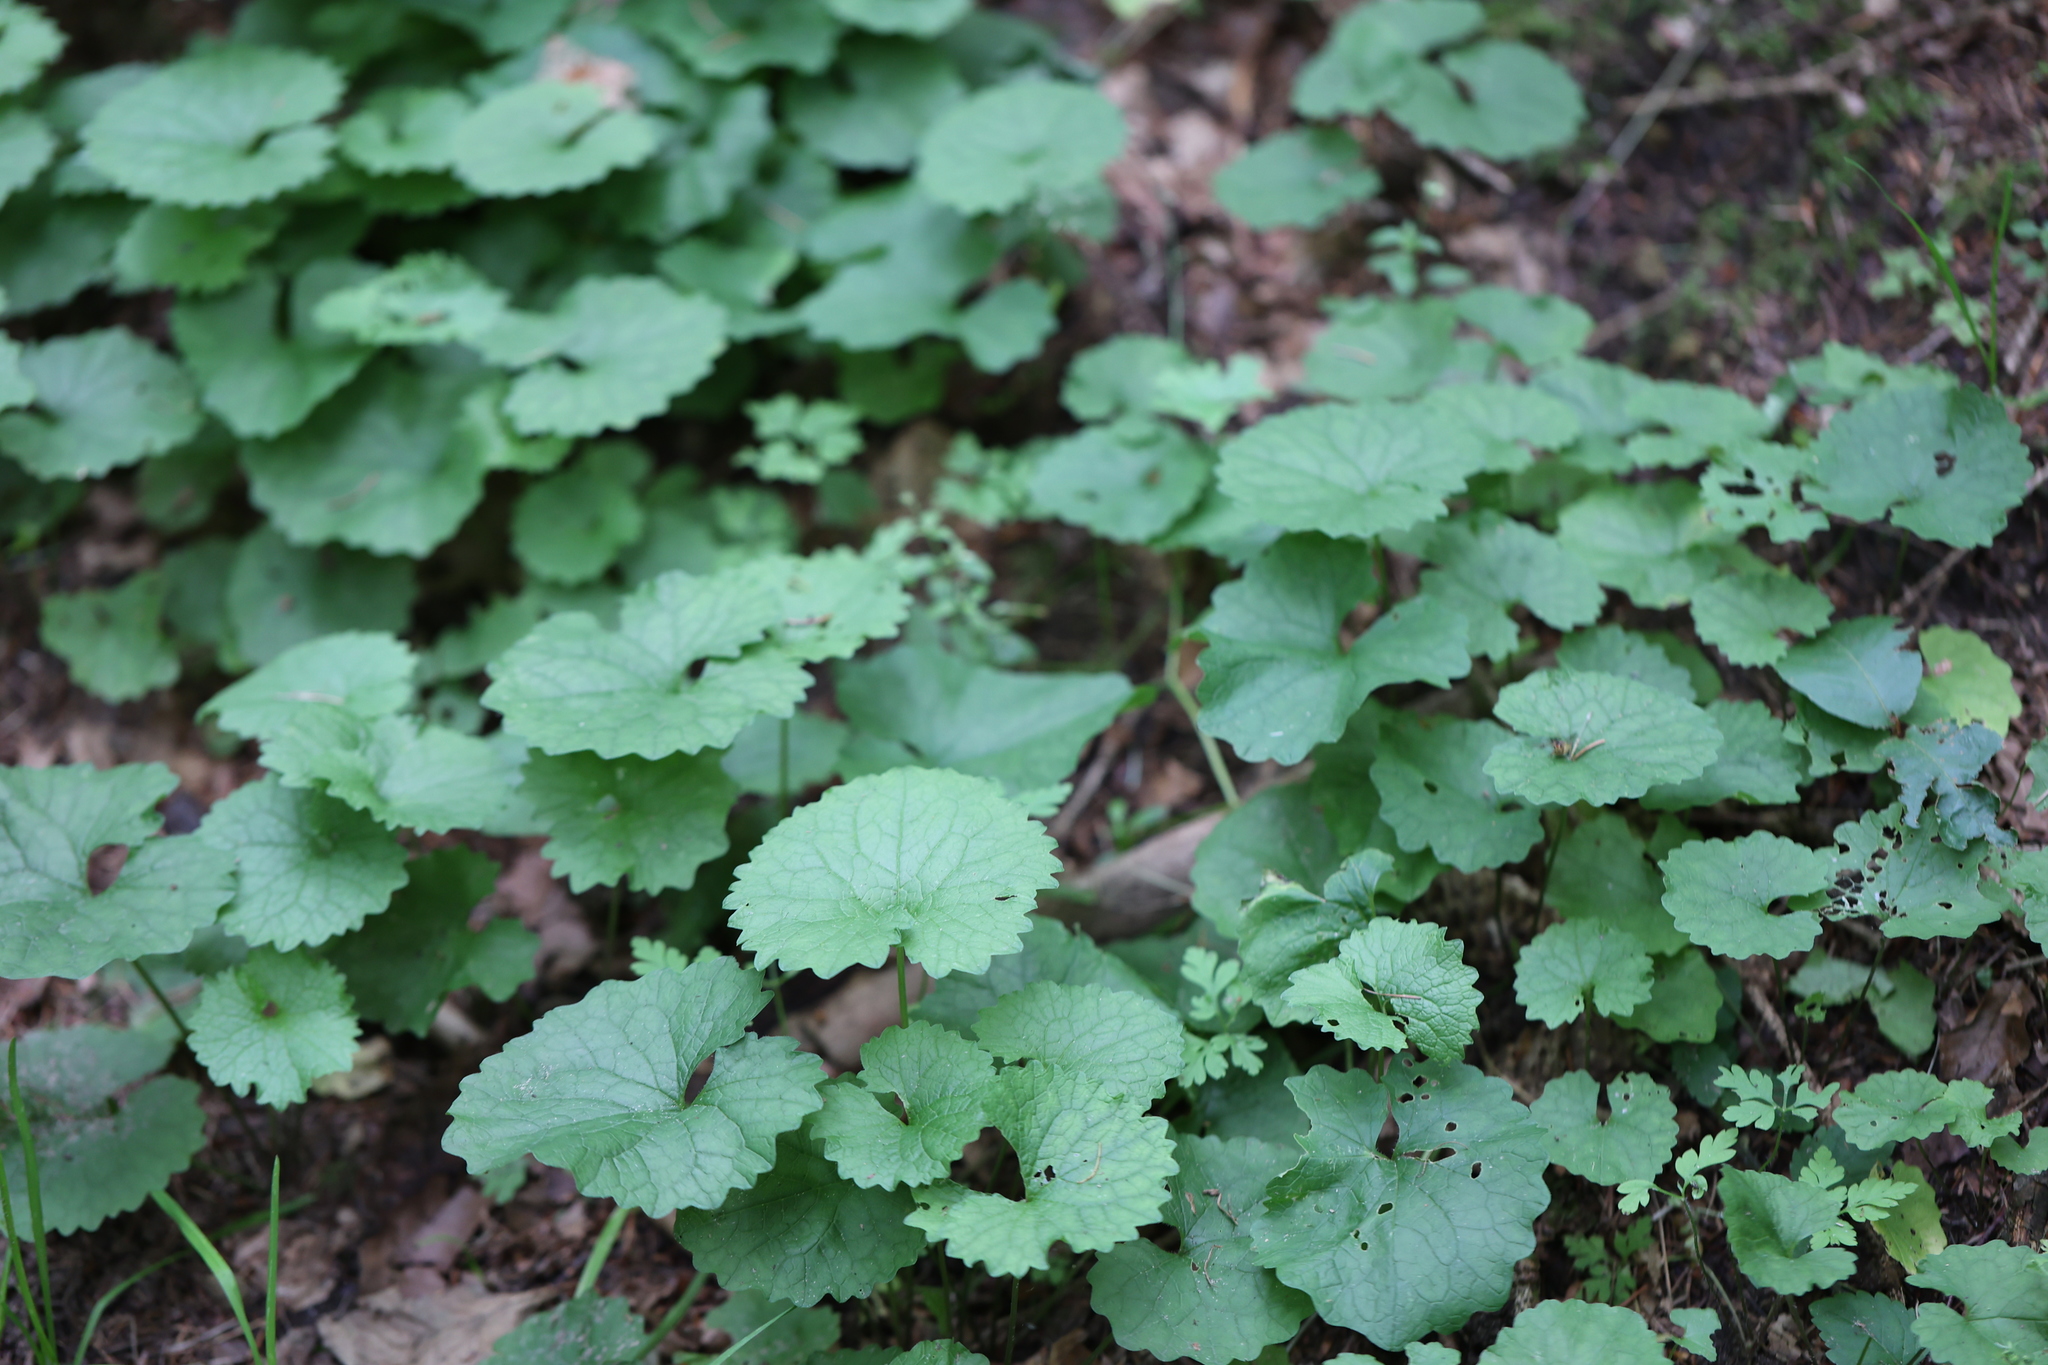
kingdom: Plantae
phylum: Tracheophyta
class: Magnoliopsida
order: Brassicales
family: Brassicaceae
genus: Alliaria
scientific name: Alliaria petiolata
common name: Garlic mustard
